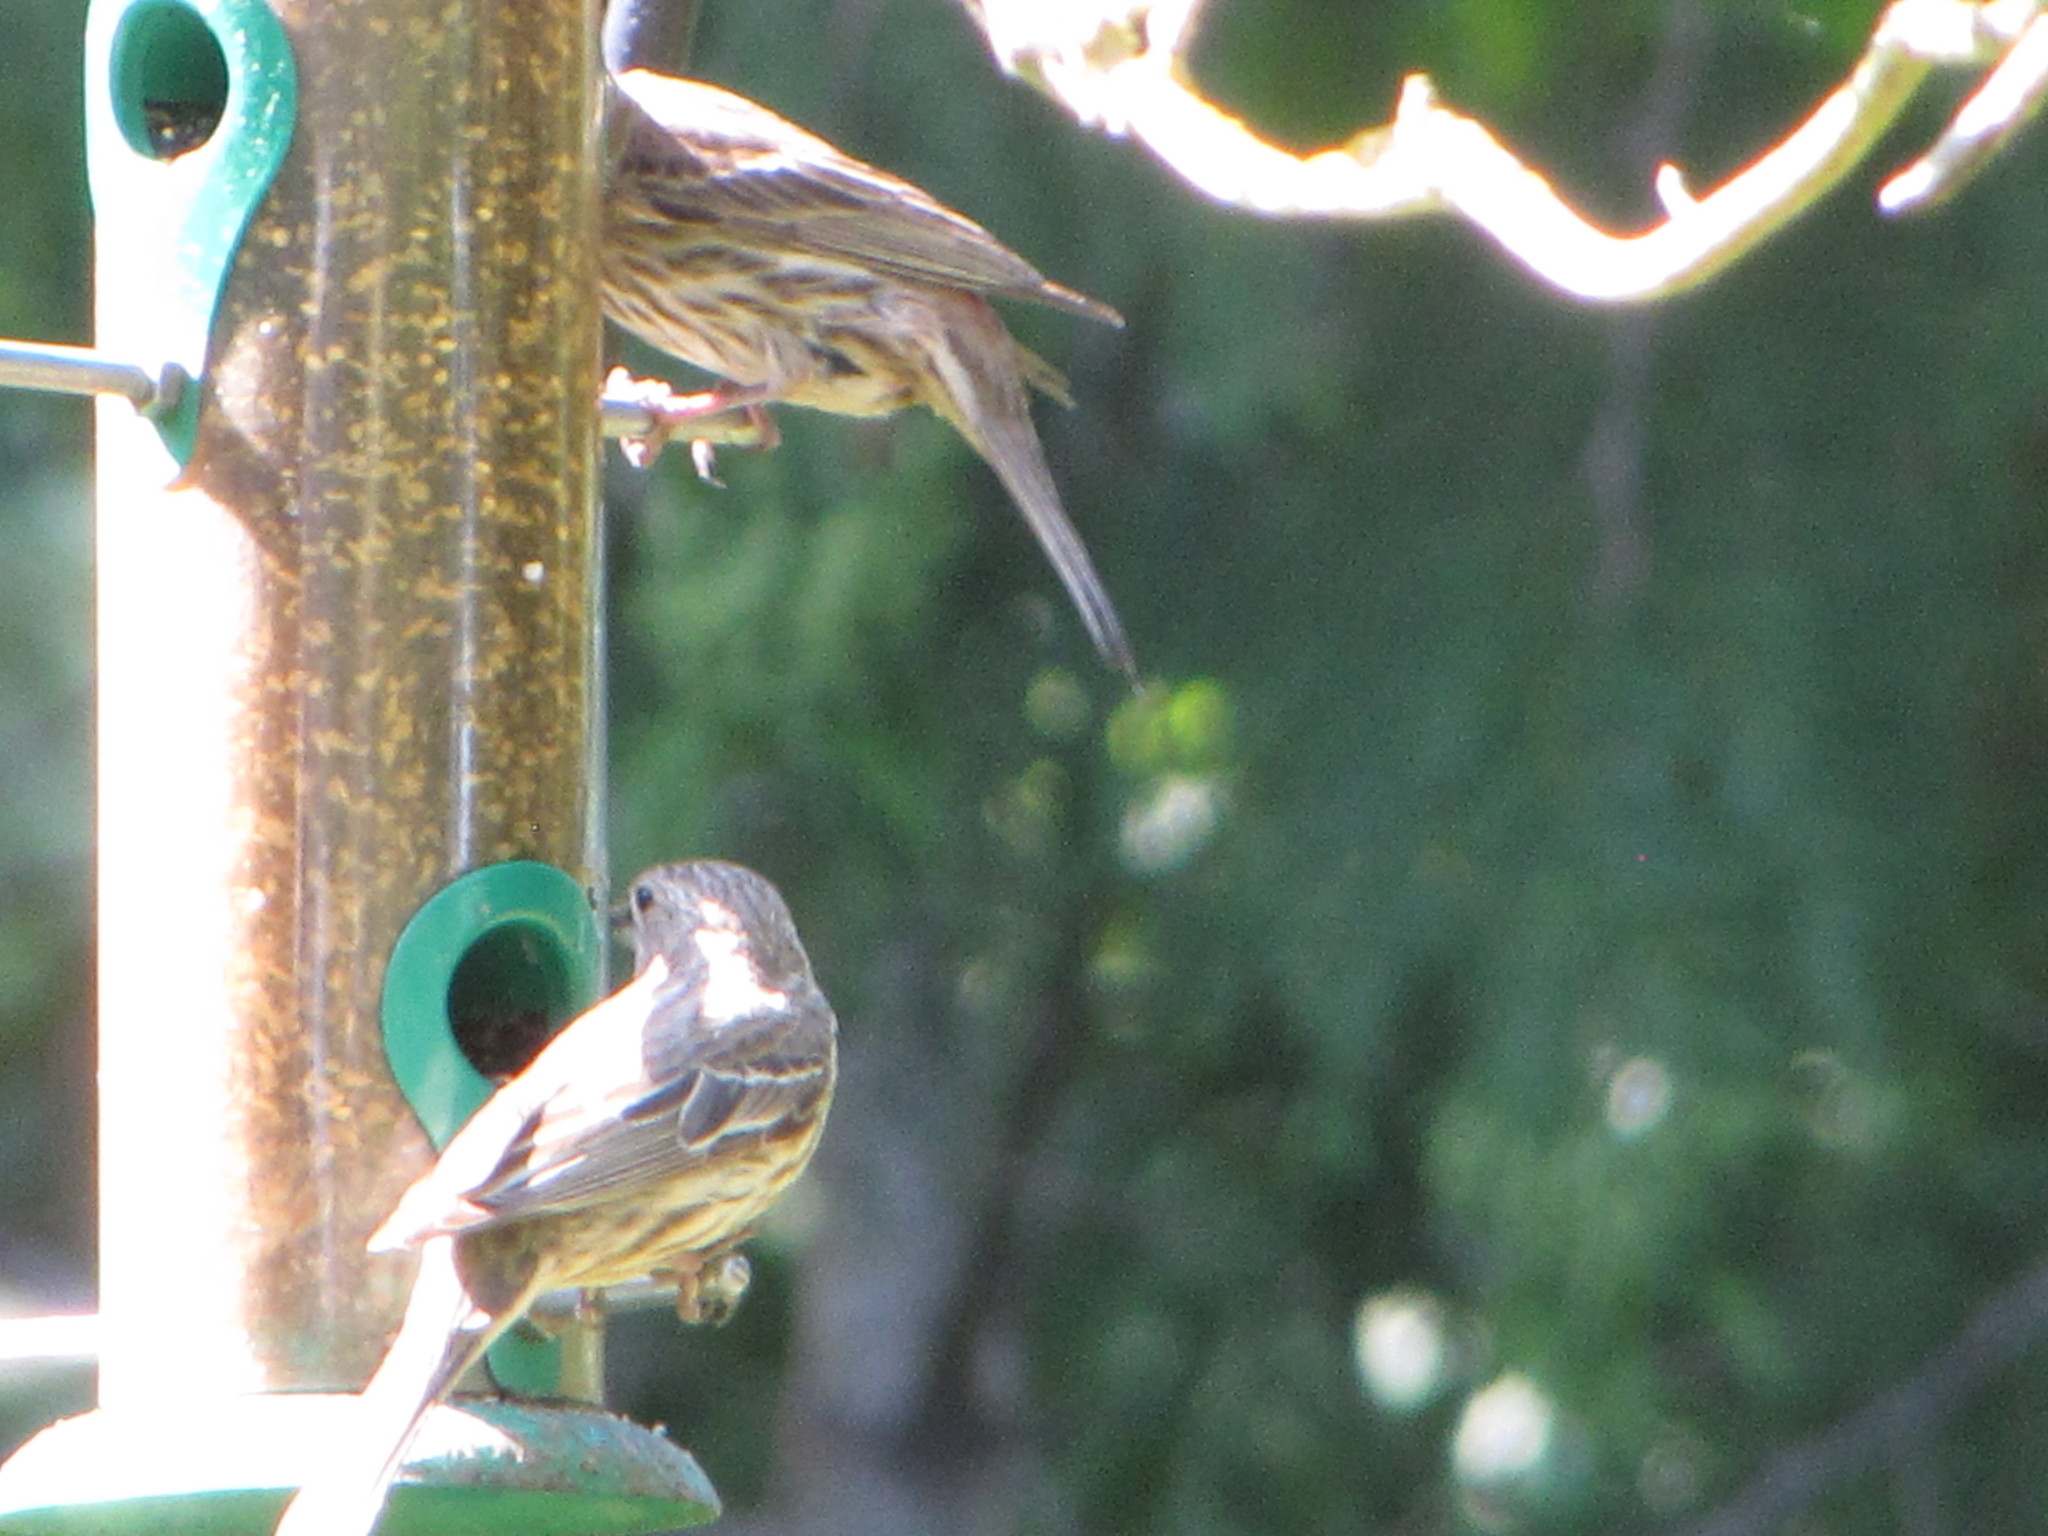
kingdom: Animalia
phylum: Chordata
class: Aves
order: Passeriformes
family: Fringillidae
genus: Haemorhous
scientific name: Haemorhous mexicanus
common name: House finch
